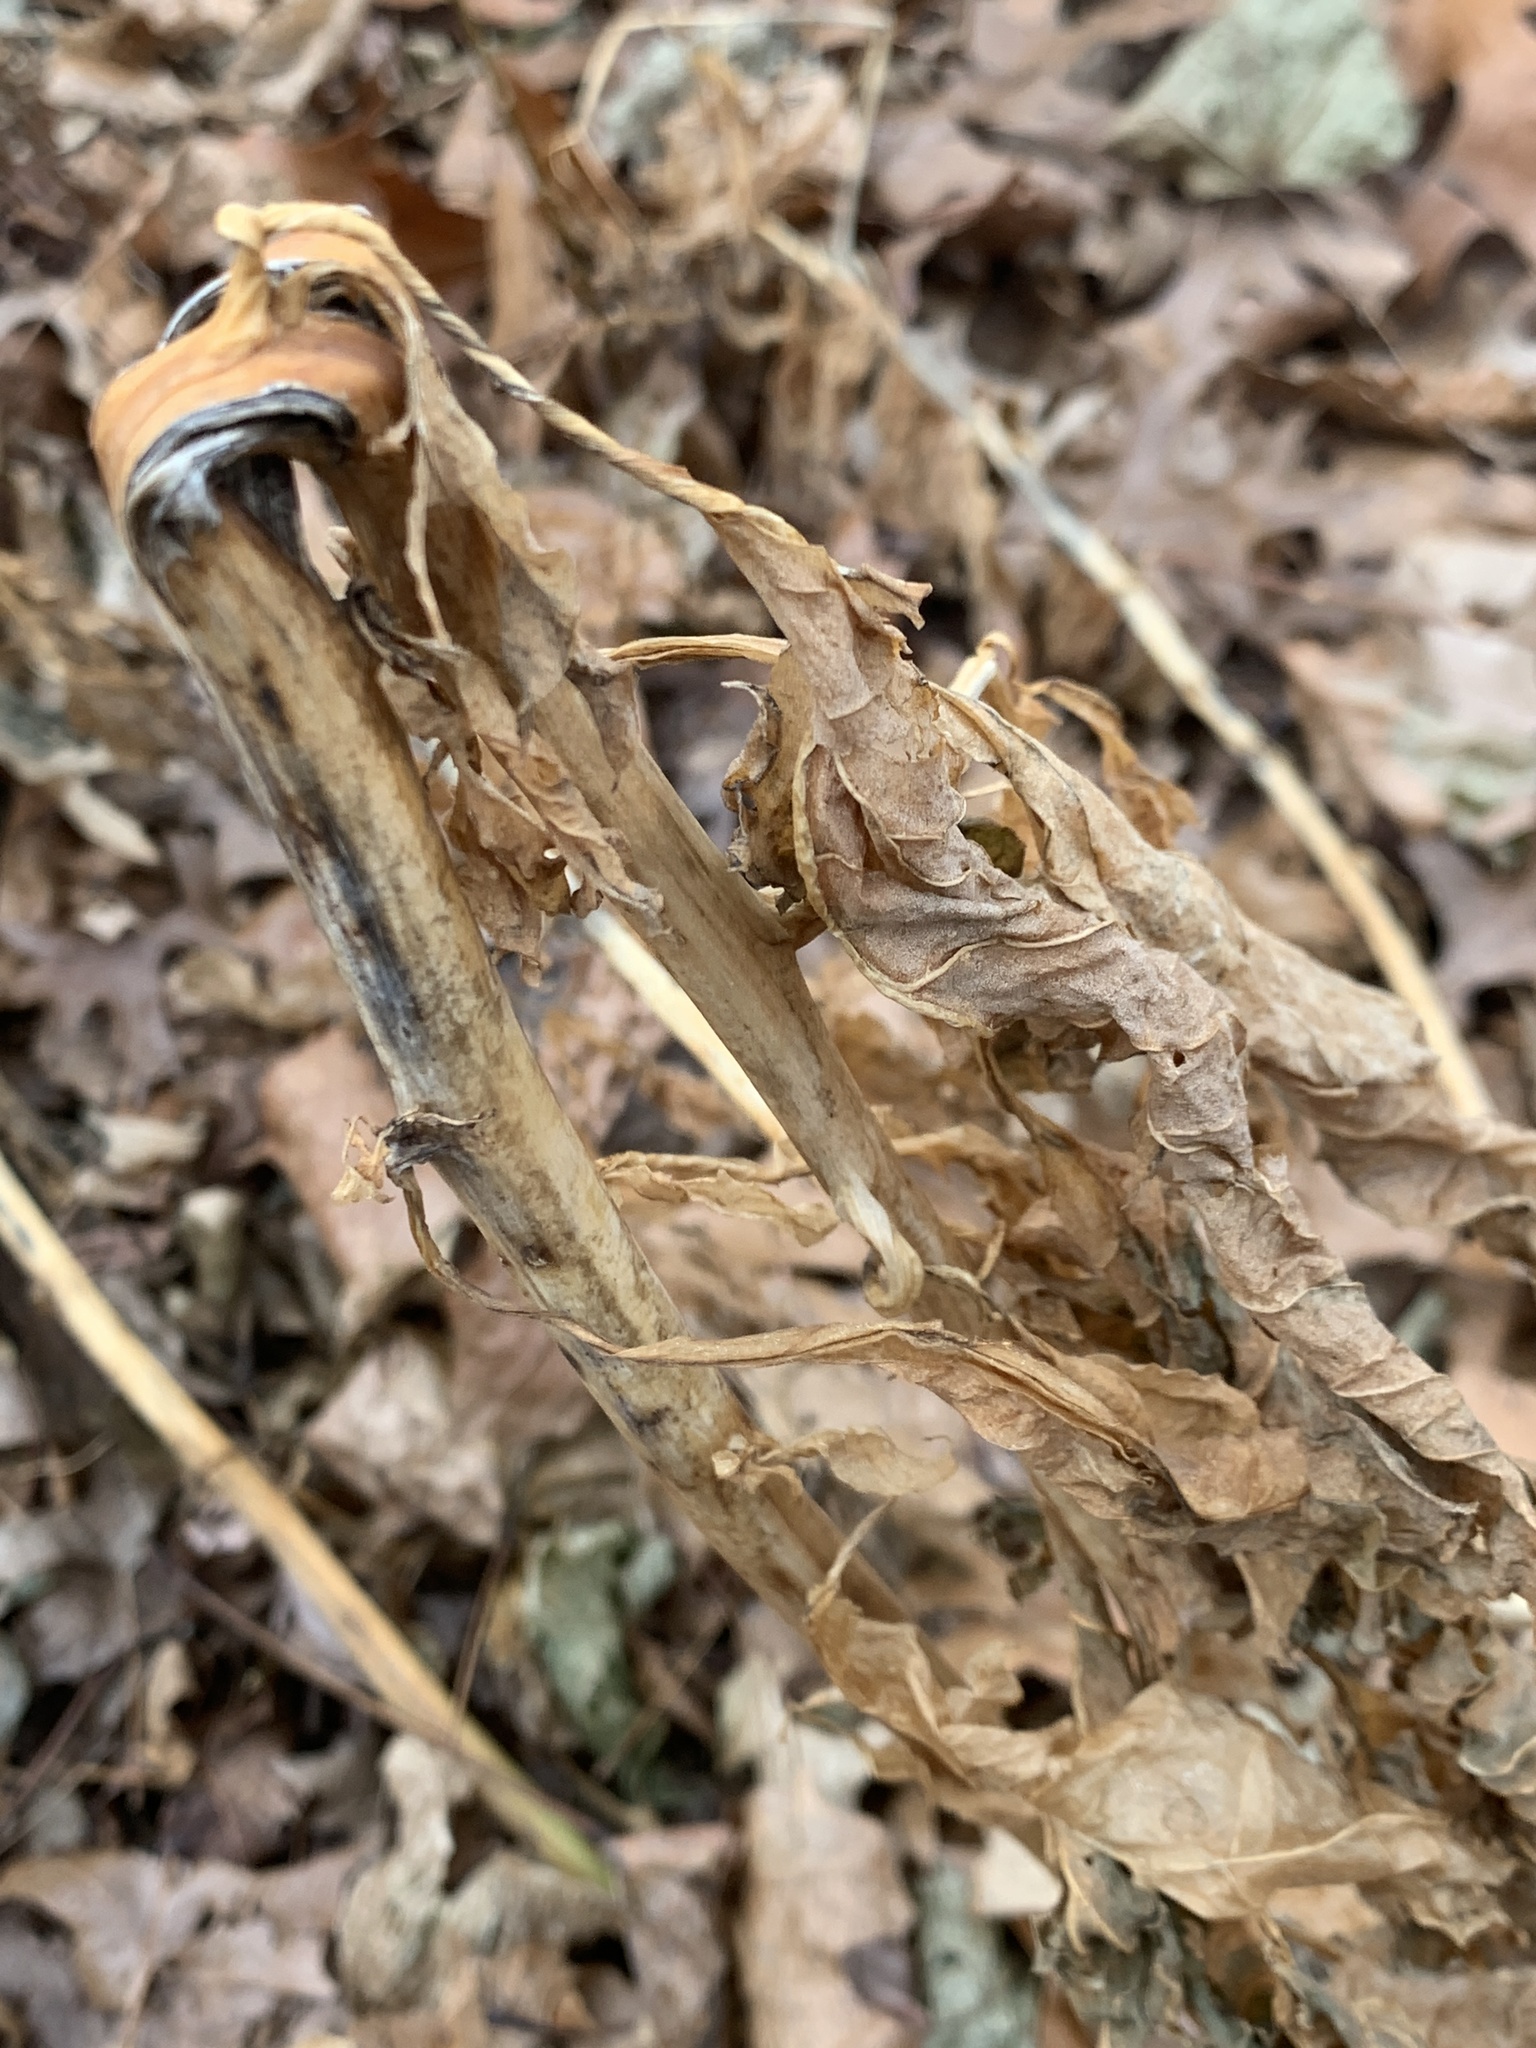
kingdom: Plantae
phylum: Tracheophyta
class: Magnoliopsida
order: Caryophyllales
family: Phytolaccaceae
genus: Phytolacca
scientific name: Phytolacca americana
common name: American pokeweed
